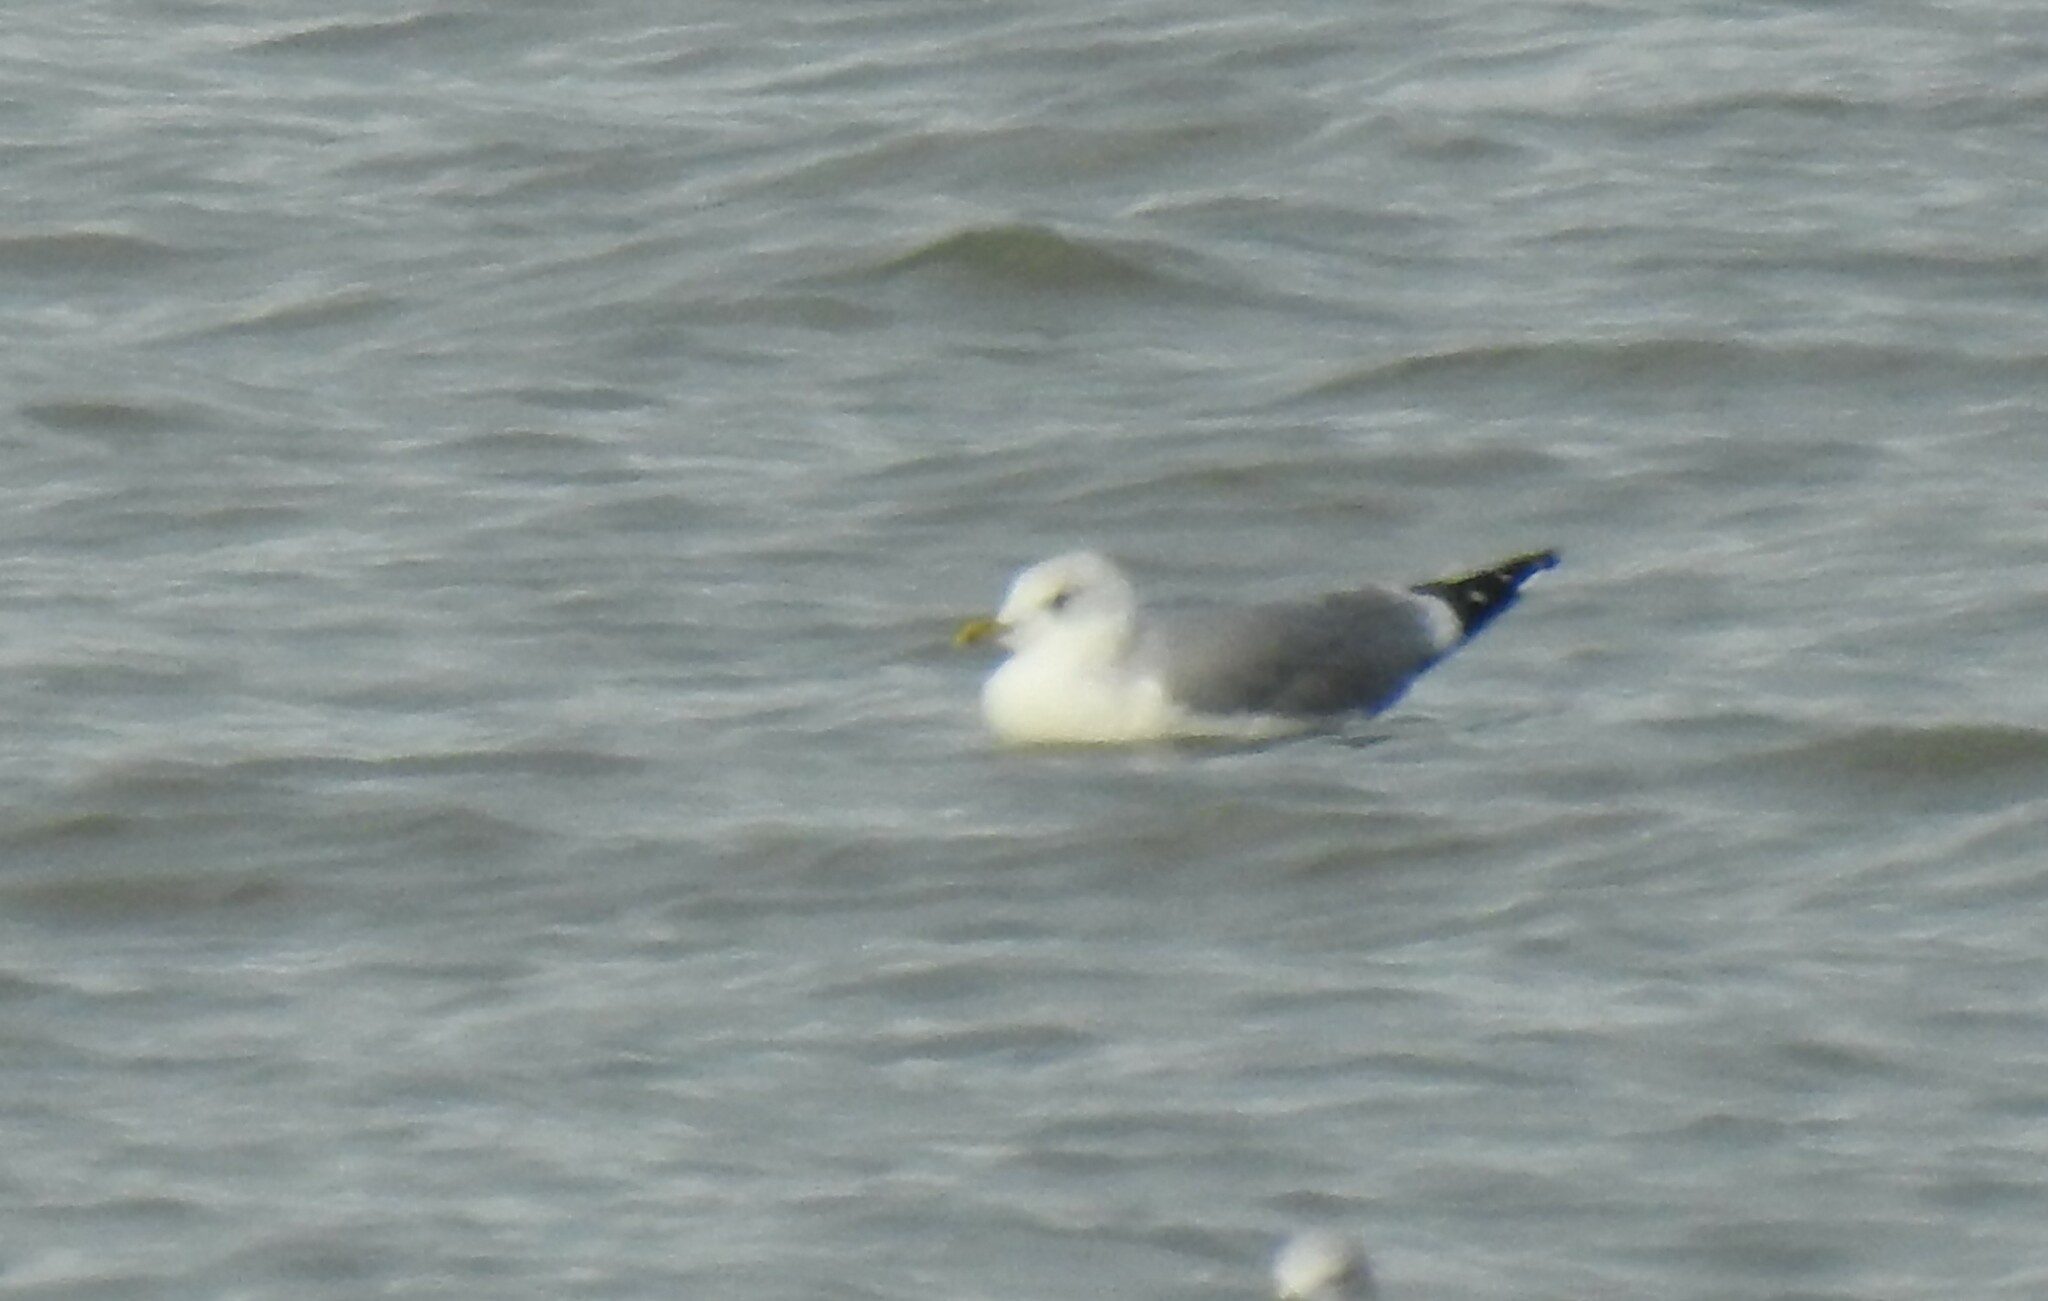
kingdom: Animalia
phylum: Chordata
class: Aves
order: Charadriiformes
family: Laridae
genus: Larus
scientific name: Larus canus
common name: Mew gull
